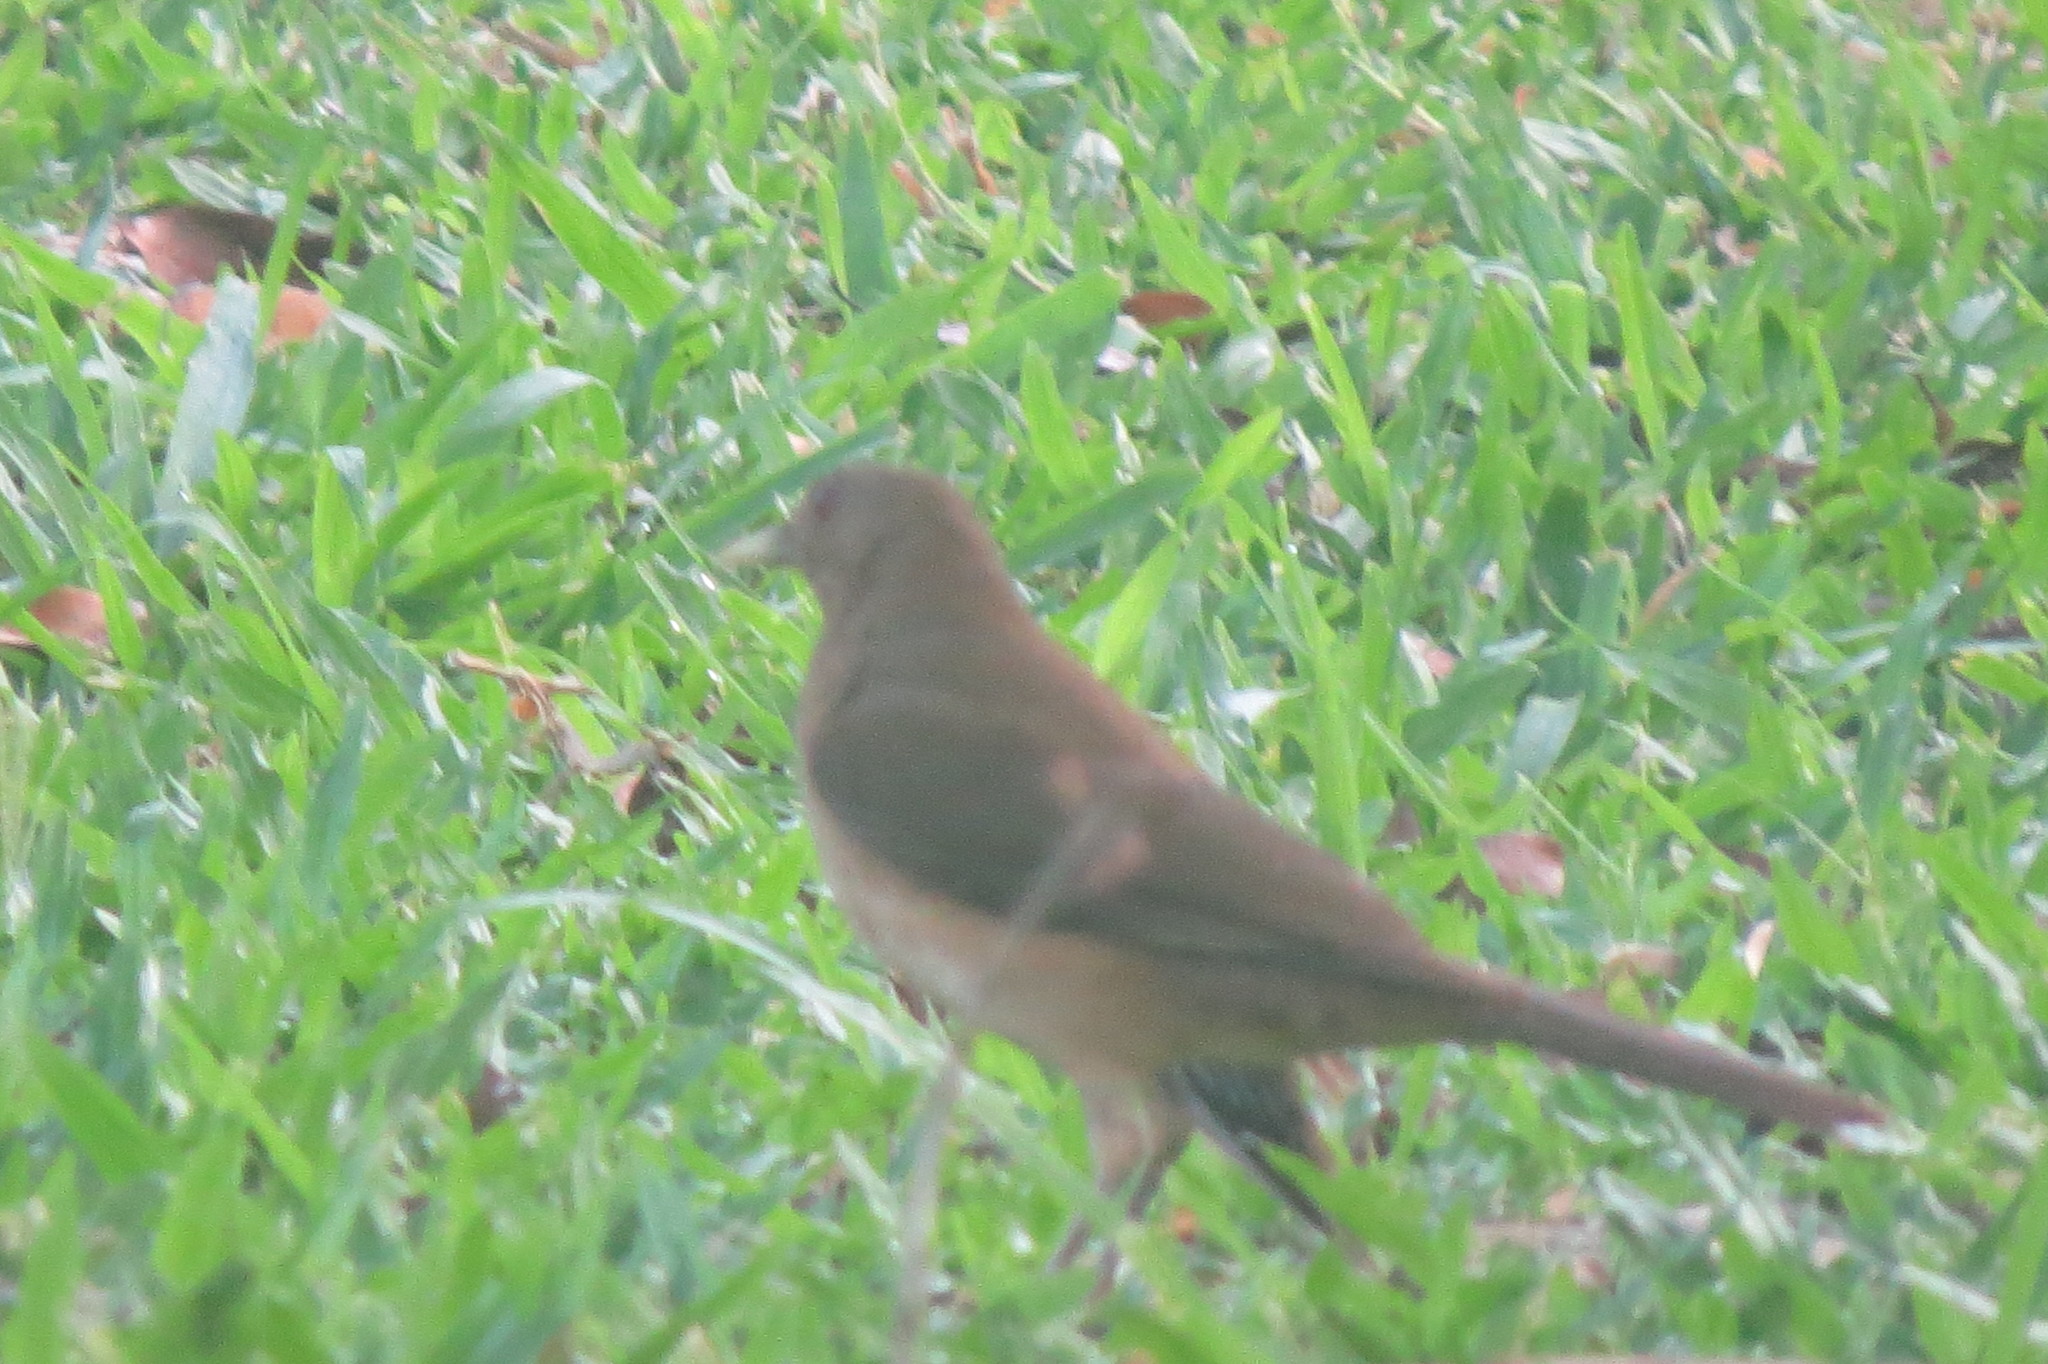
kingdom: Animalia
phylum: Chordata
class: Aves
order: Passeriformes
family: Turdidae
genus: Turdus
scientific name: Turdus grayi
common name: Clay-colored thrush
